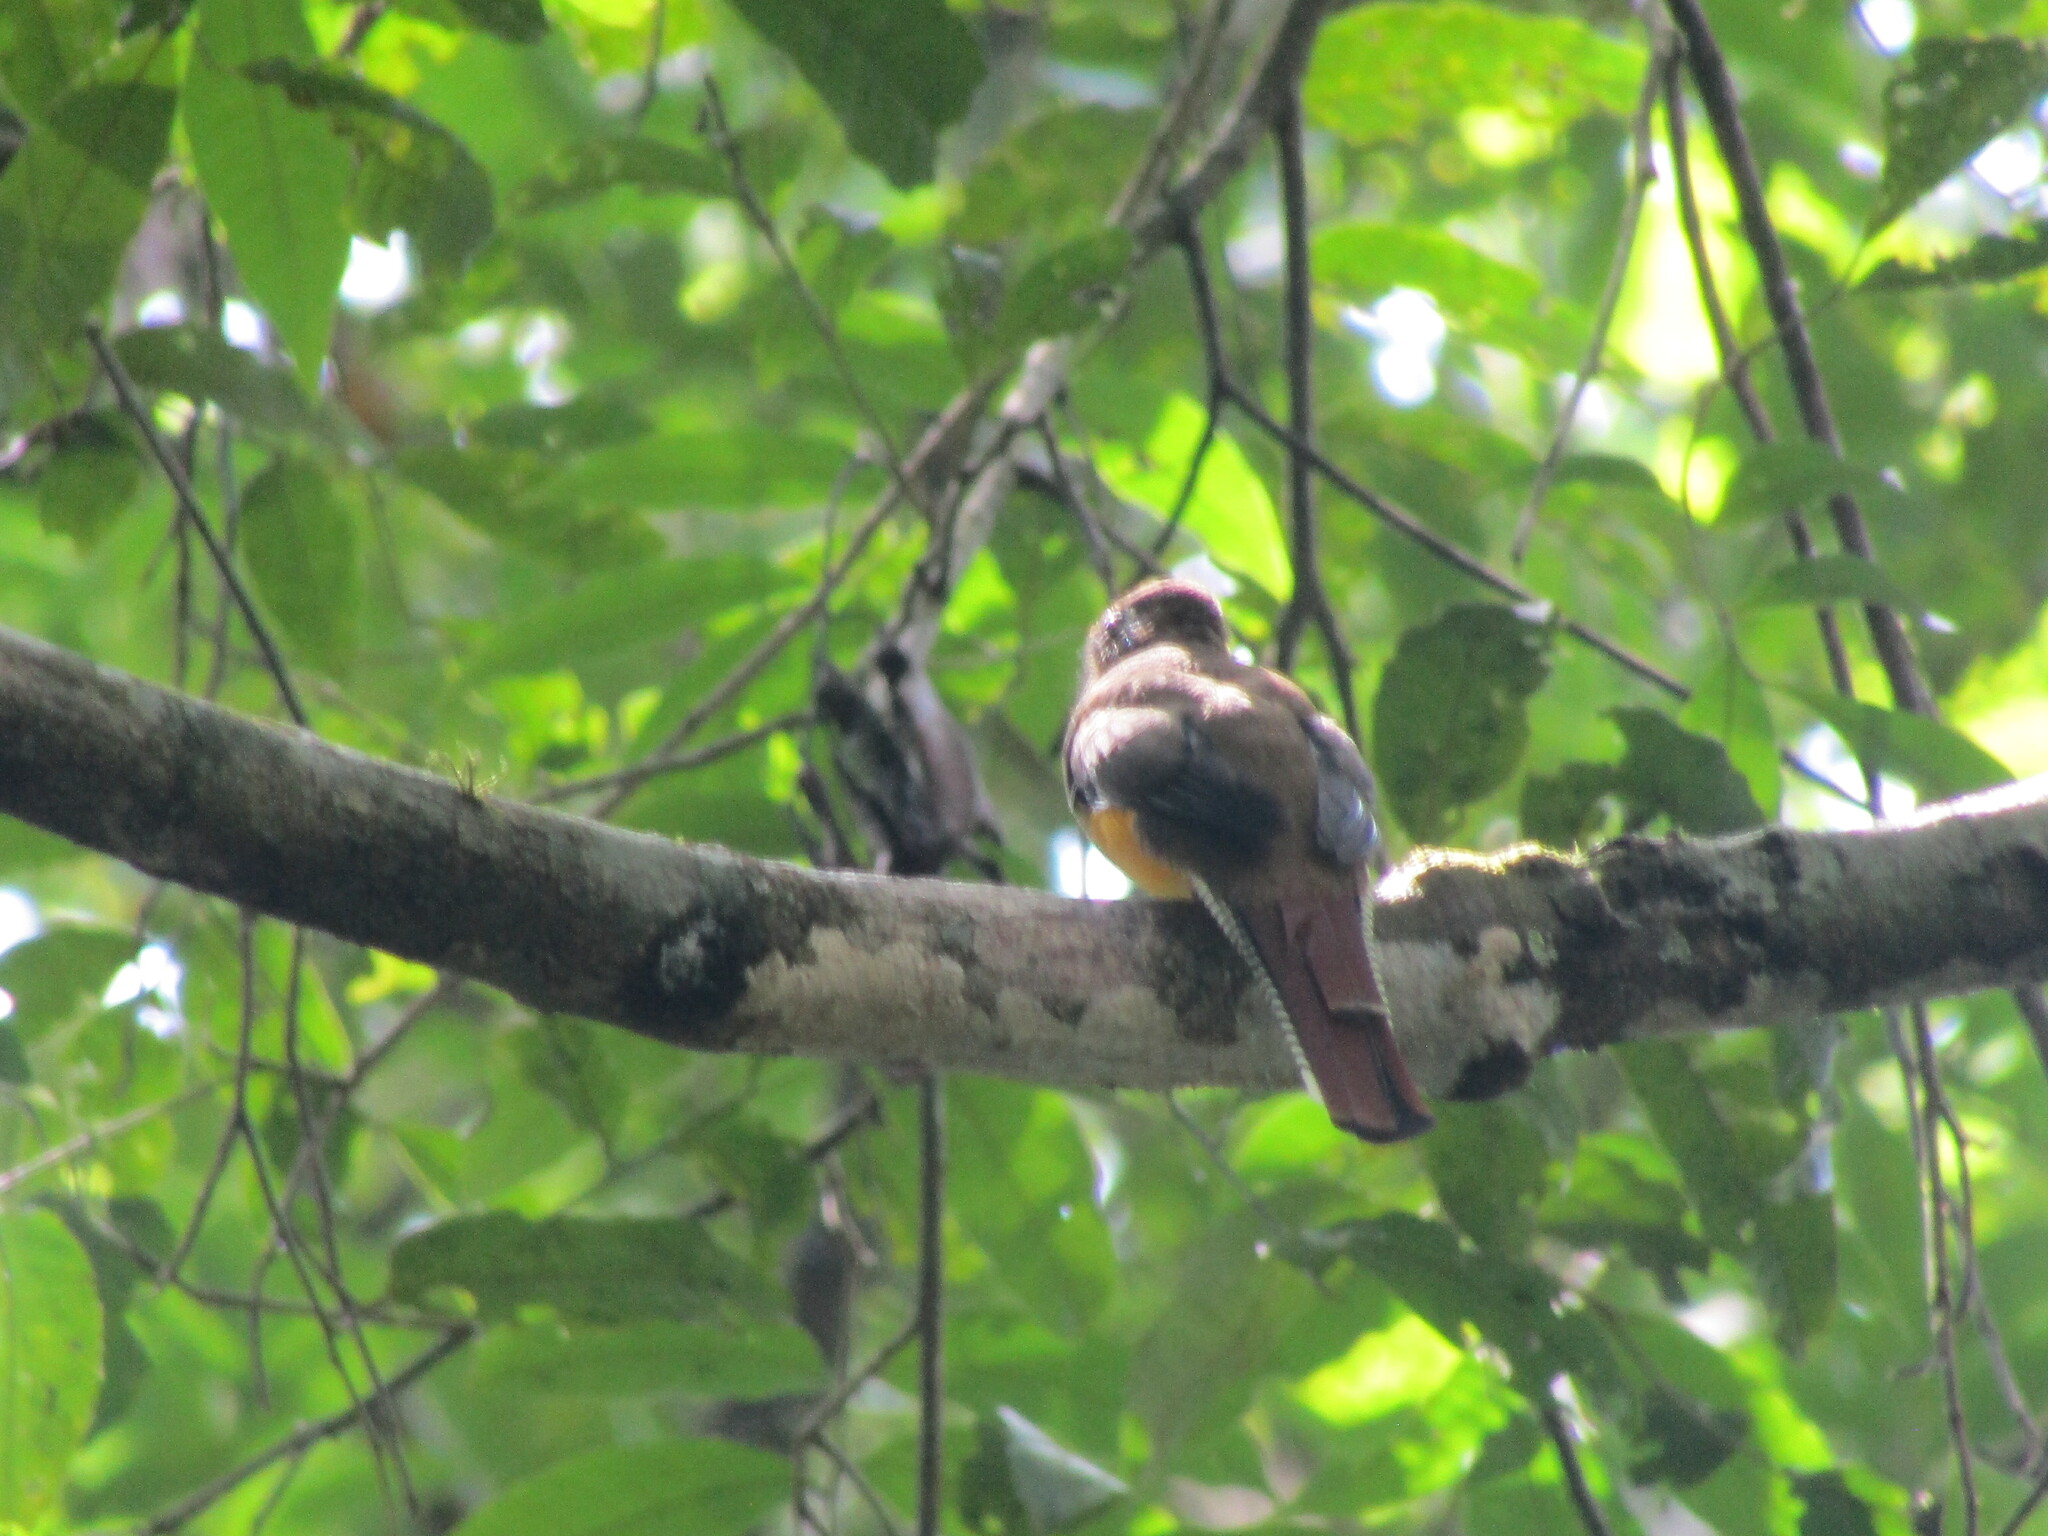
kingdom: Animalia
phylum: Chordata
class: Aves
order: Trogoniformes
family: Trogonidae
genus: Trogon
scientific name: Trogon rufus
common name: Black-throated trogon
